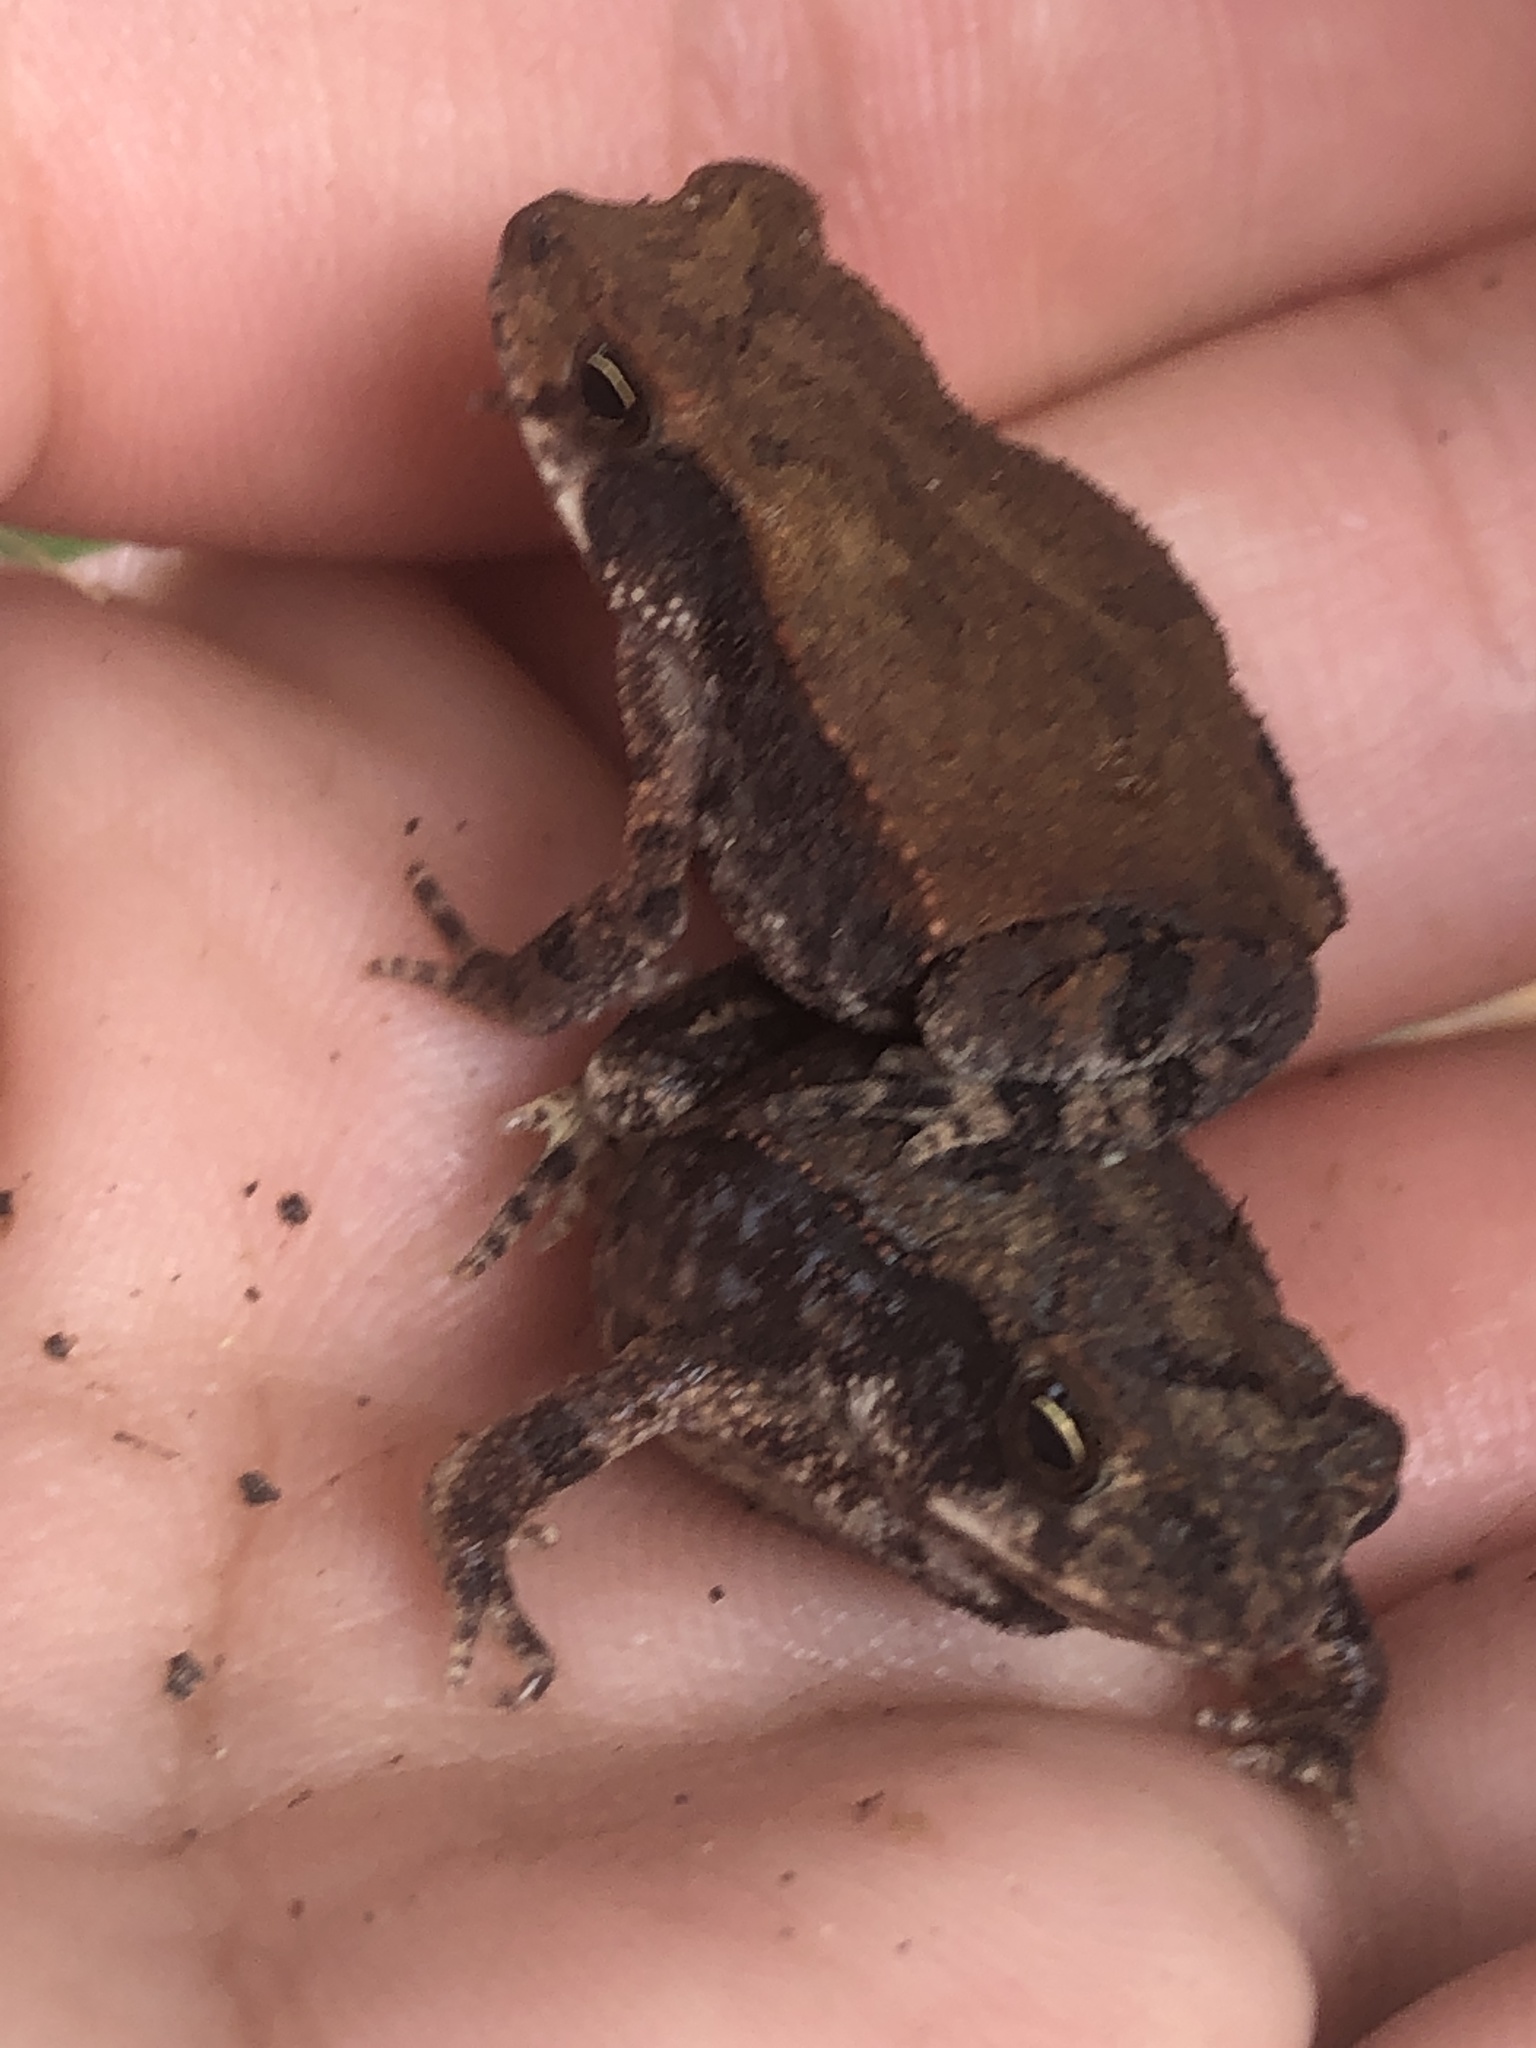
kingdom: Animalia
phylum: Chordata
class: Amphibia
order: Anura
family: Bufonidae
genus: Incilius
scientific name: Incilius nebulifer
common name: Gulf coast toad
